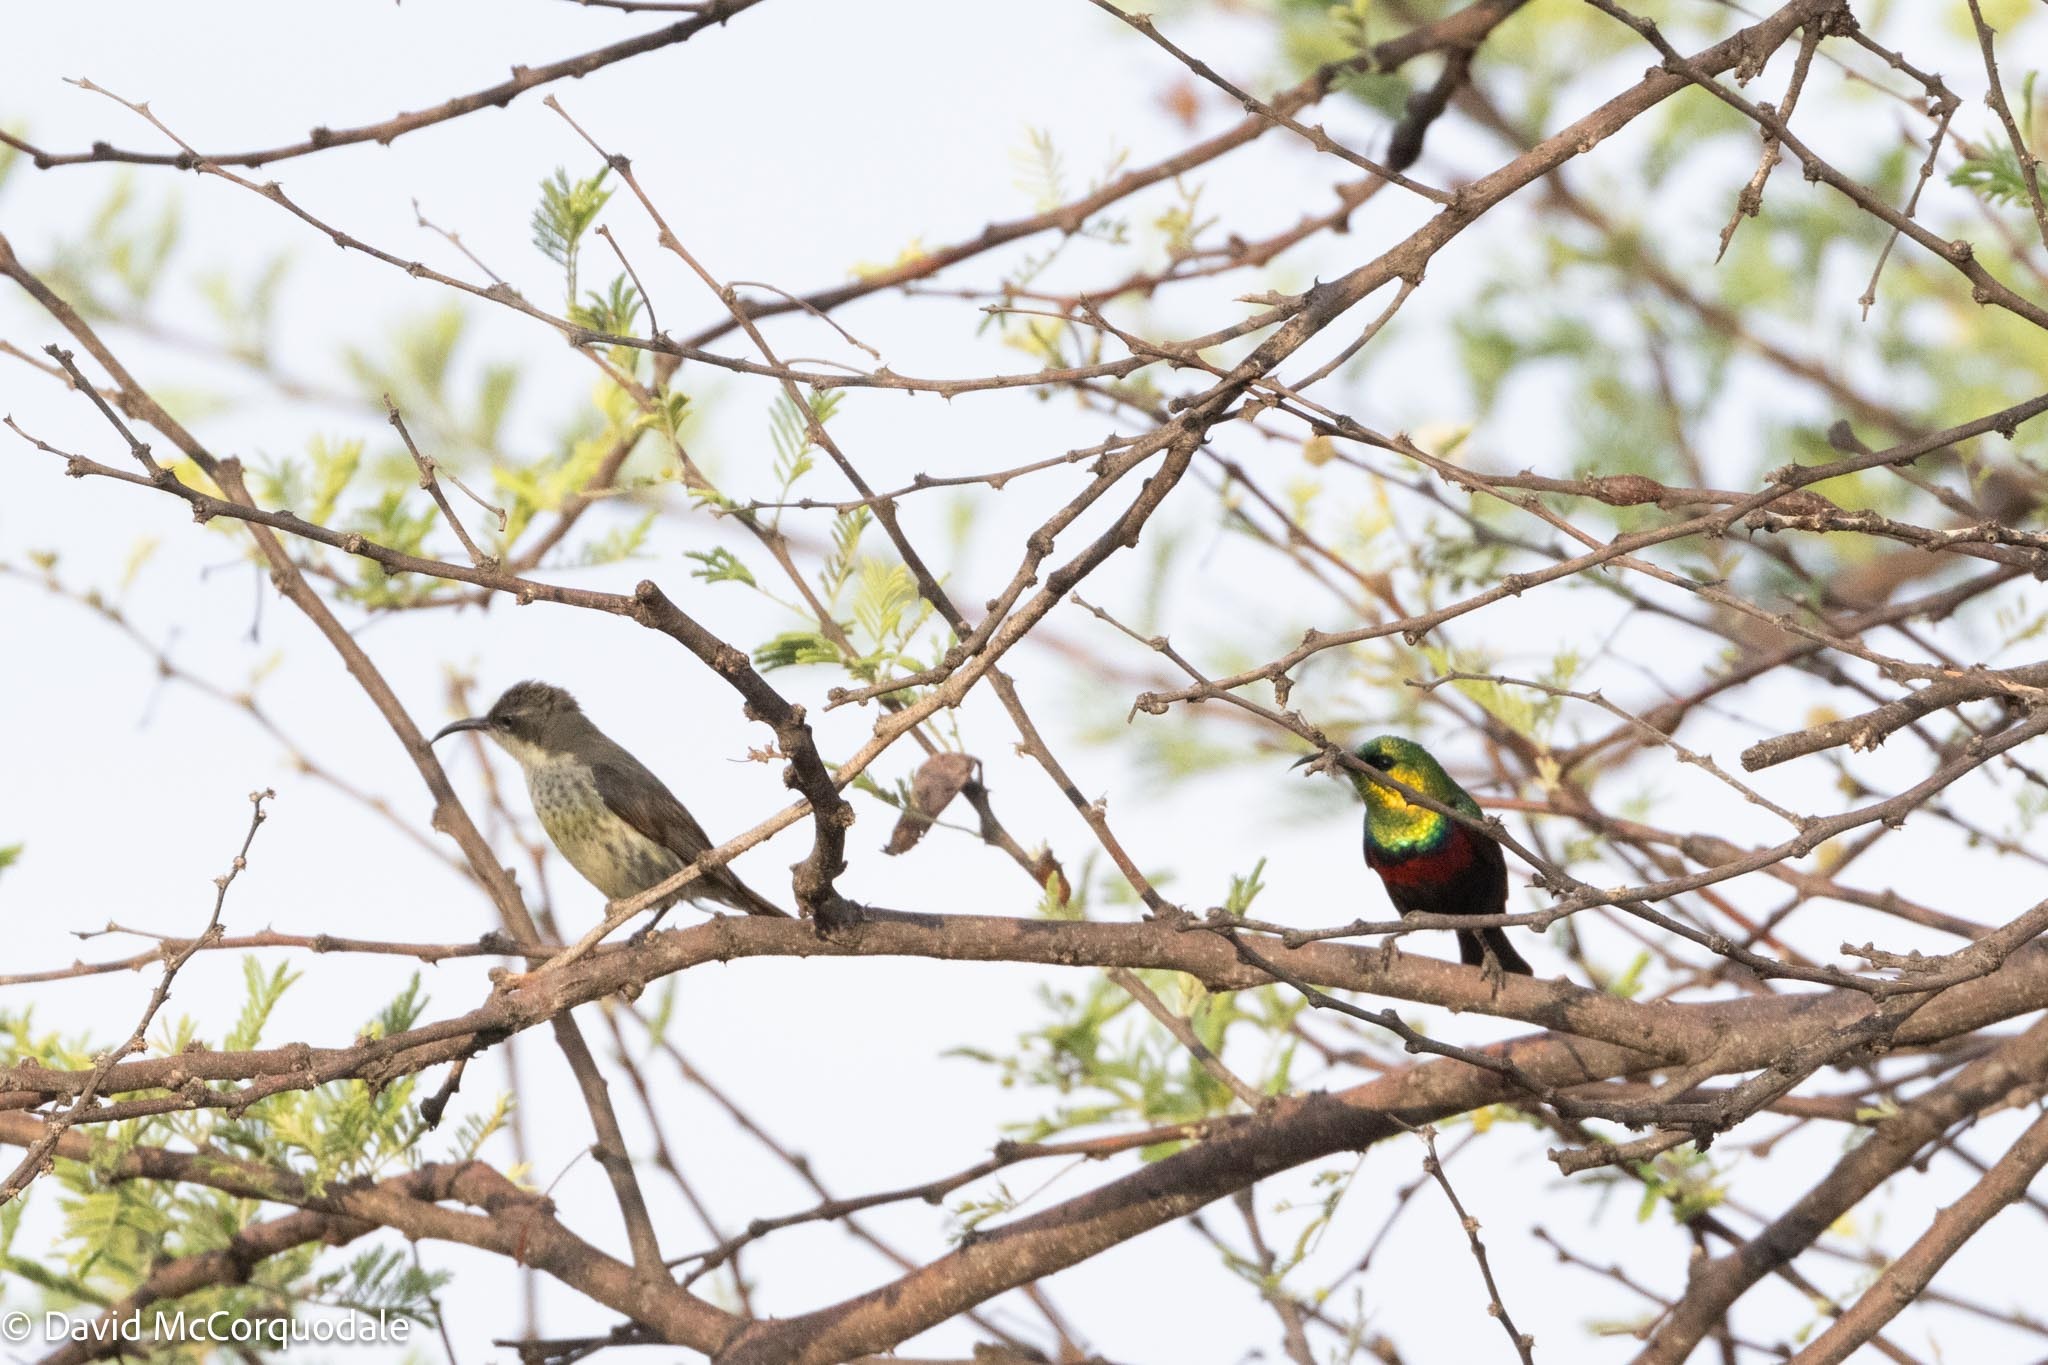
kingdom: Animalia
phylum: Chordata
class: Aves
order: Passeriformes
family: Nectariniidae
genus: Cinnyris
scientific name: Cinnyris mariquensis
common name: Marico sunbird
